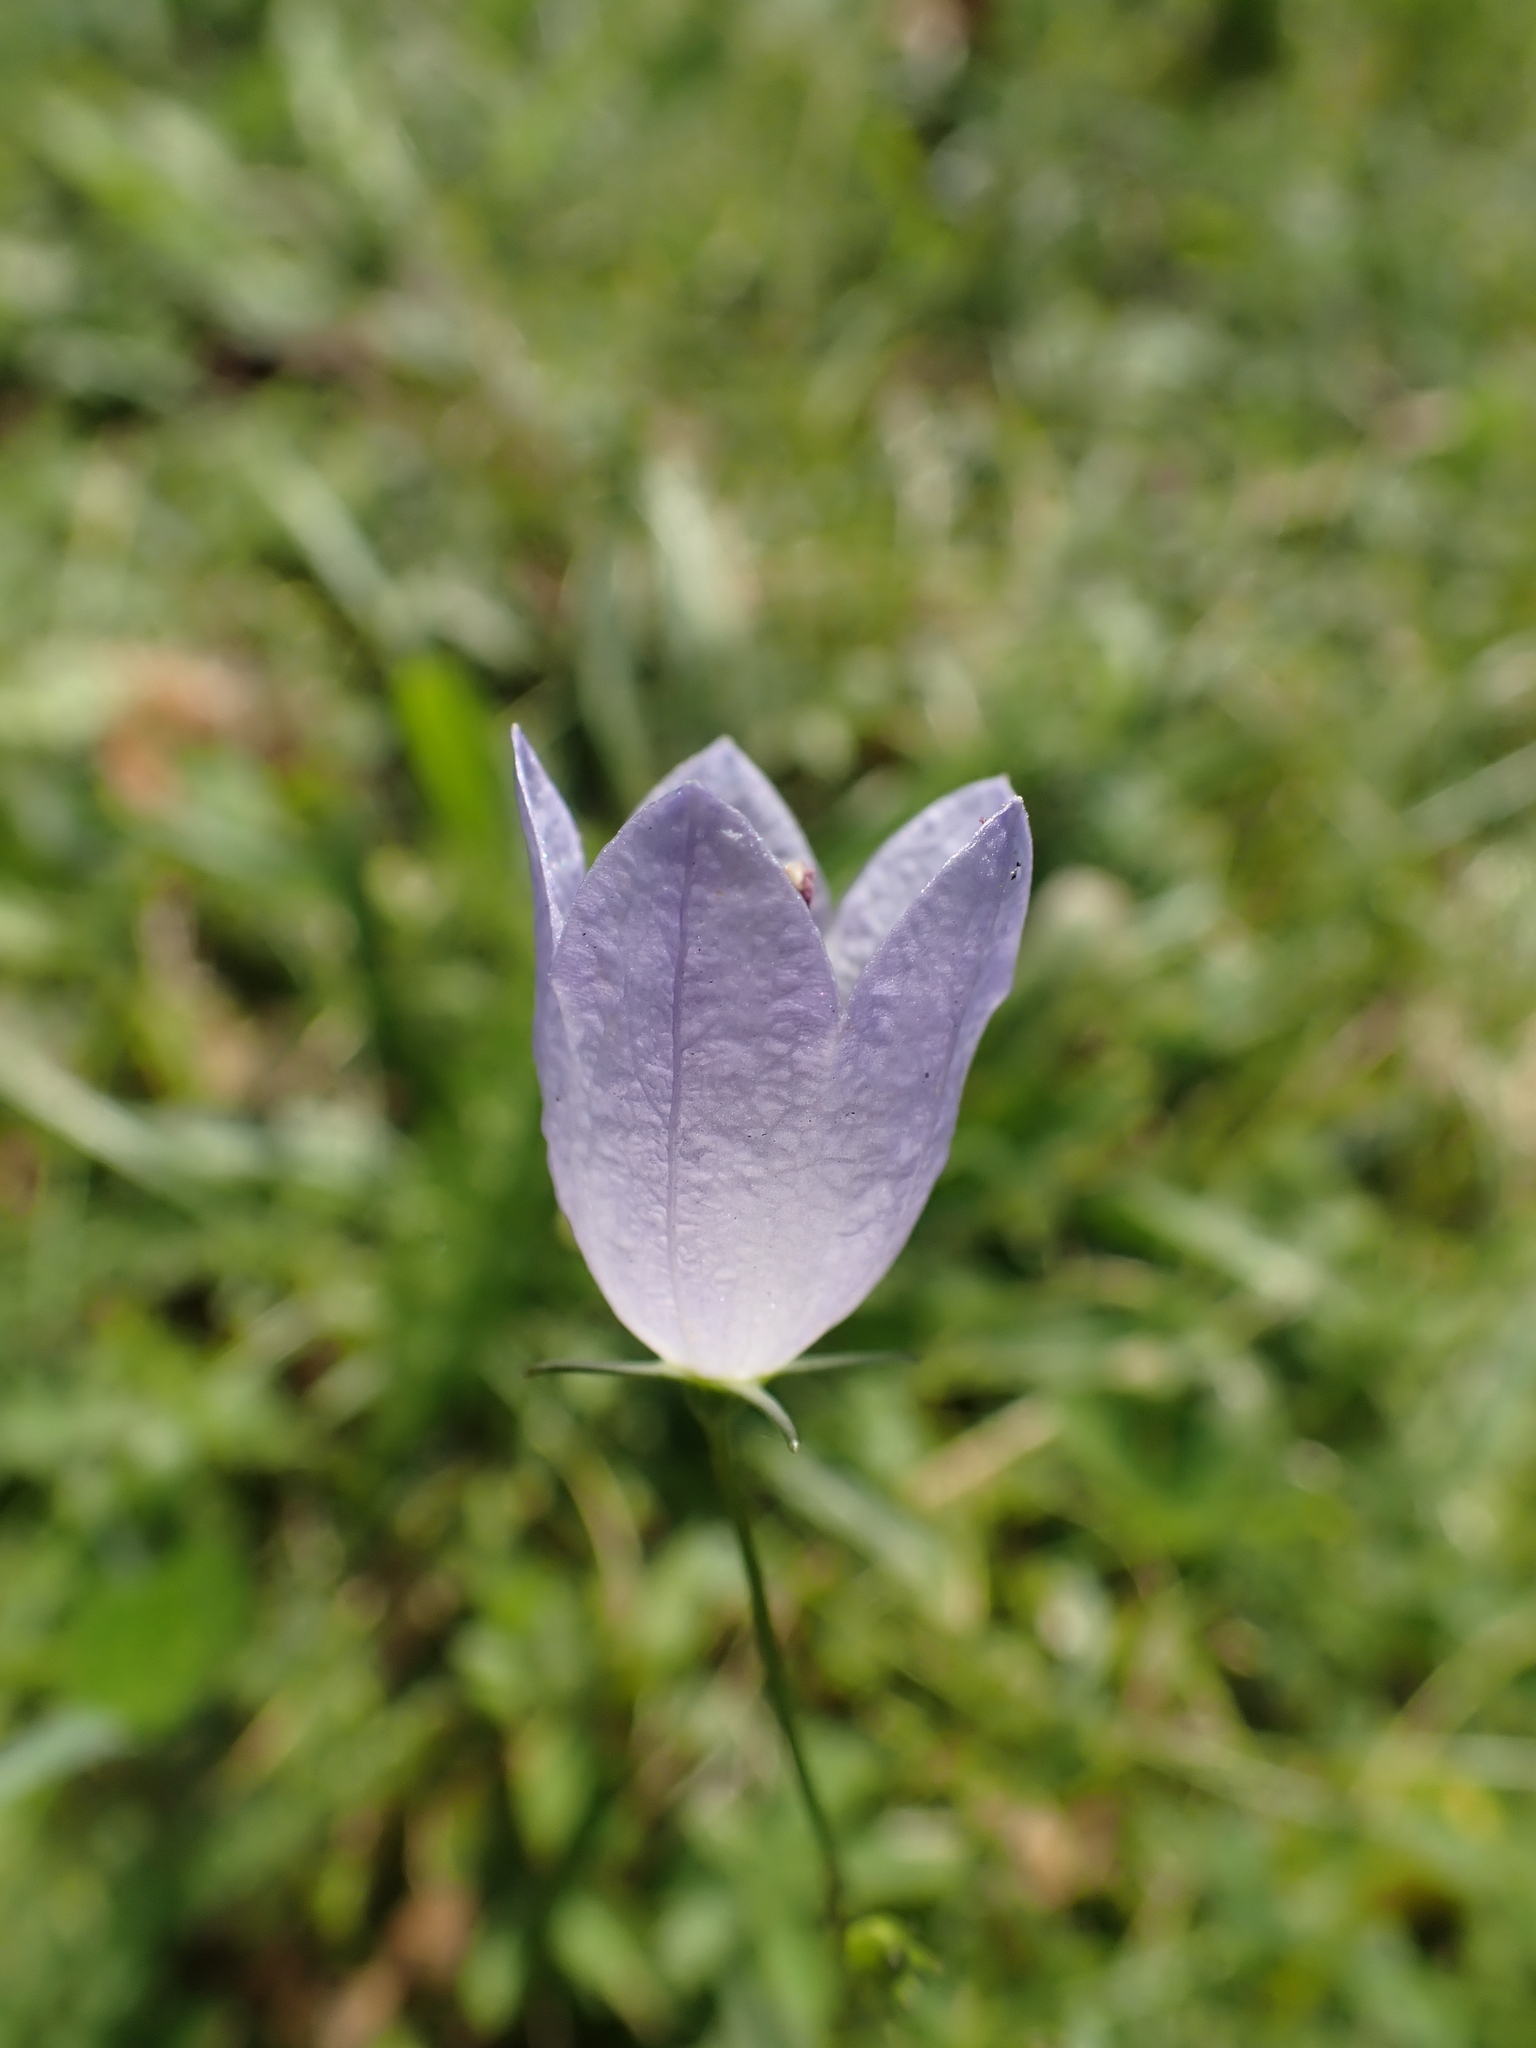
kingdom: Plantae
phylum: Tracheophyta
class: Magnoliopsida
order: Asterales
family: Campanulaceae
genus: Campanula
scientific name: Campanula rotundifolia
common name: Harebell
